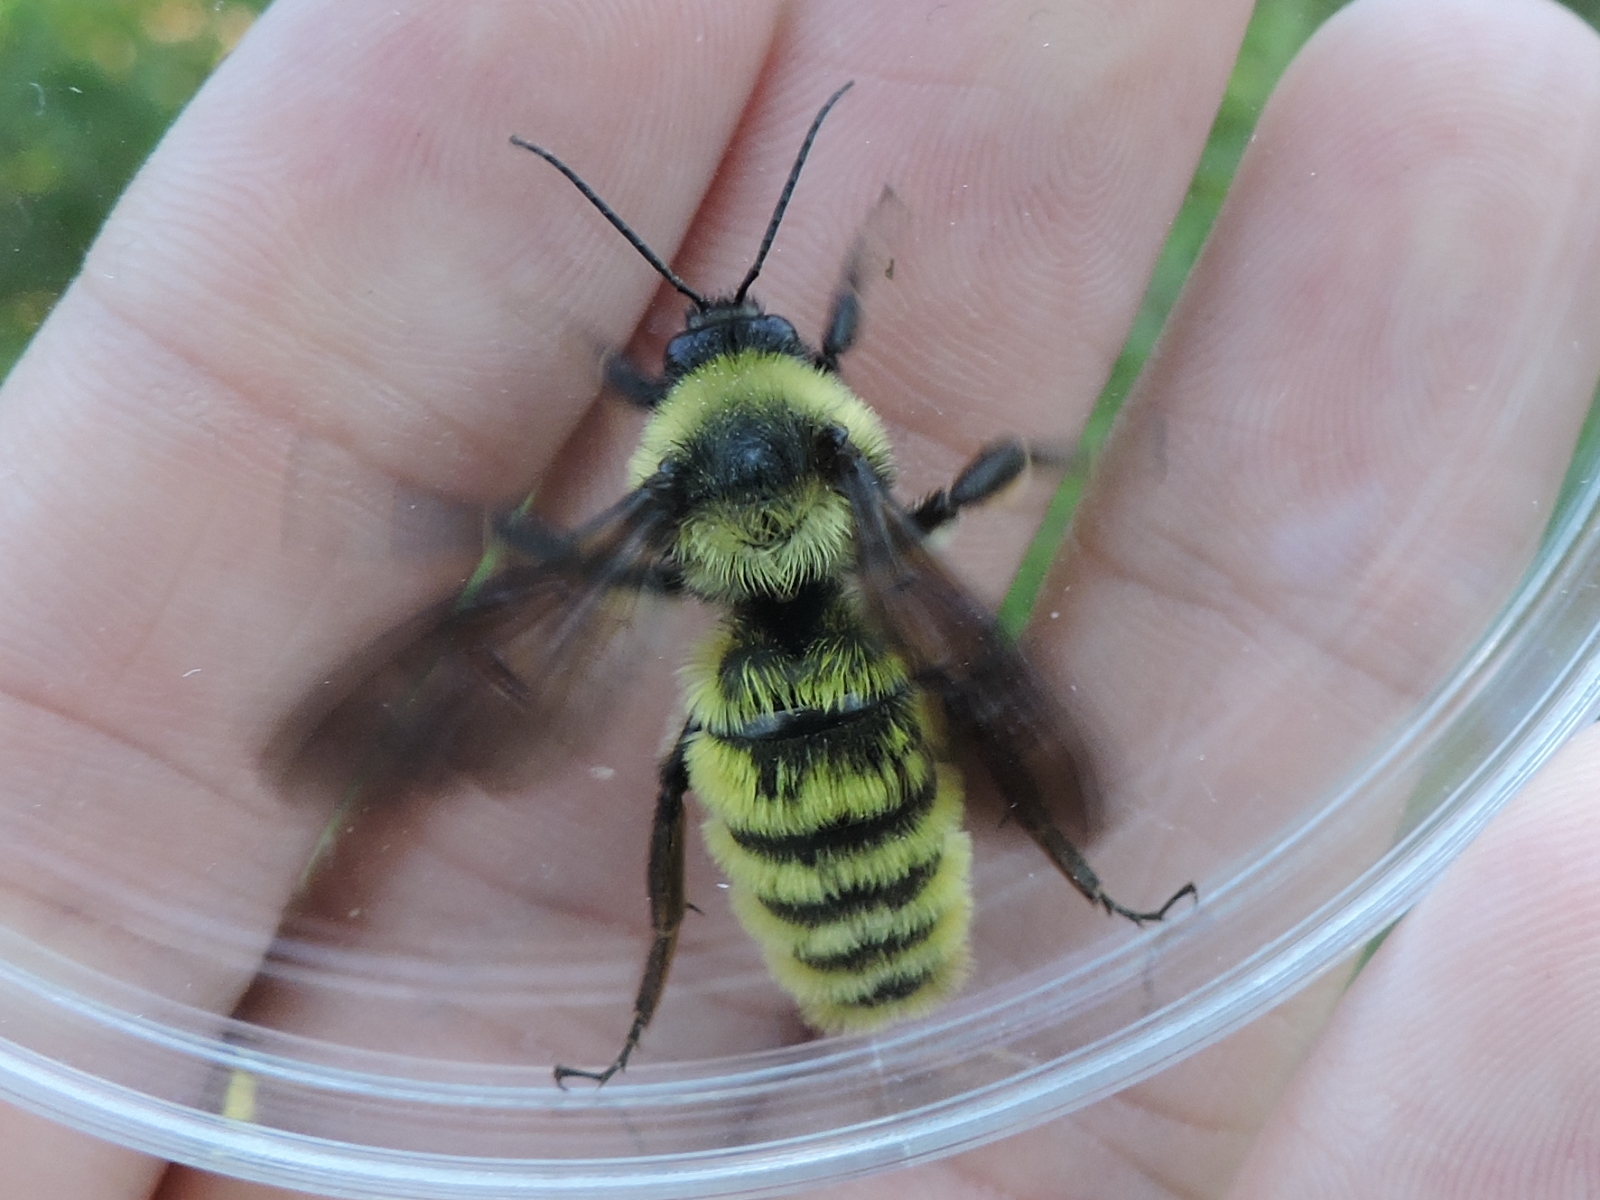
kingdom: Animalia
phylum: Arthropoda
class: Insecta
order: Hymenoptera
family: Apidae
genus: Bombus
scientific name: Bombus pensylvanicus
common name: Bumble bee
